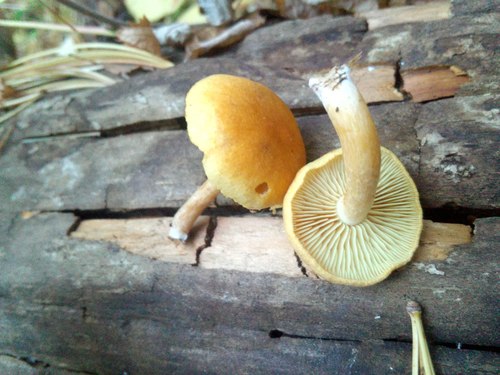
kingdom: Fungi
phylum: Basidiomycota
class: Agaricomycetes
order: Agaricales
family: Hymenogastraceae
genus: Gymnopilus
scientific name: Gymnopilus penetrans
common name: Common rustgill
